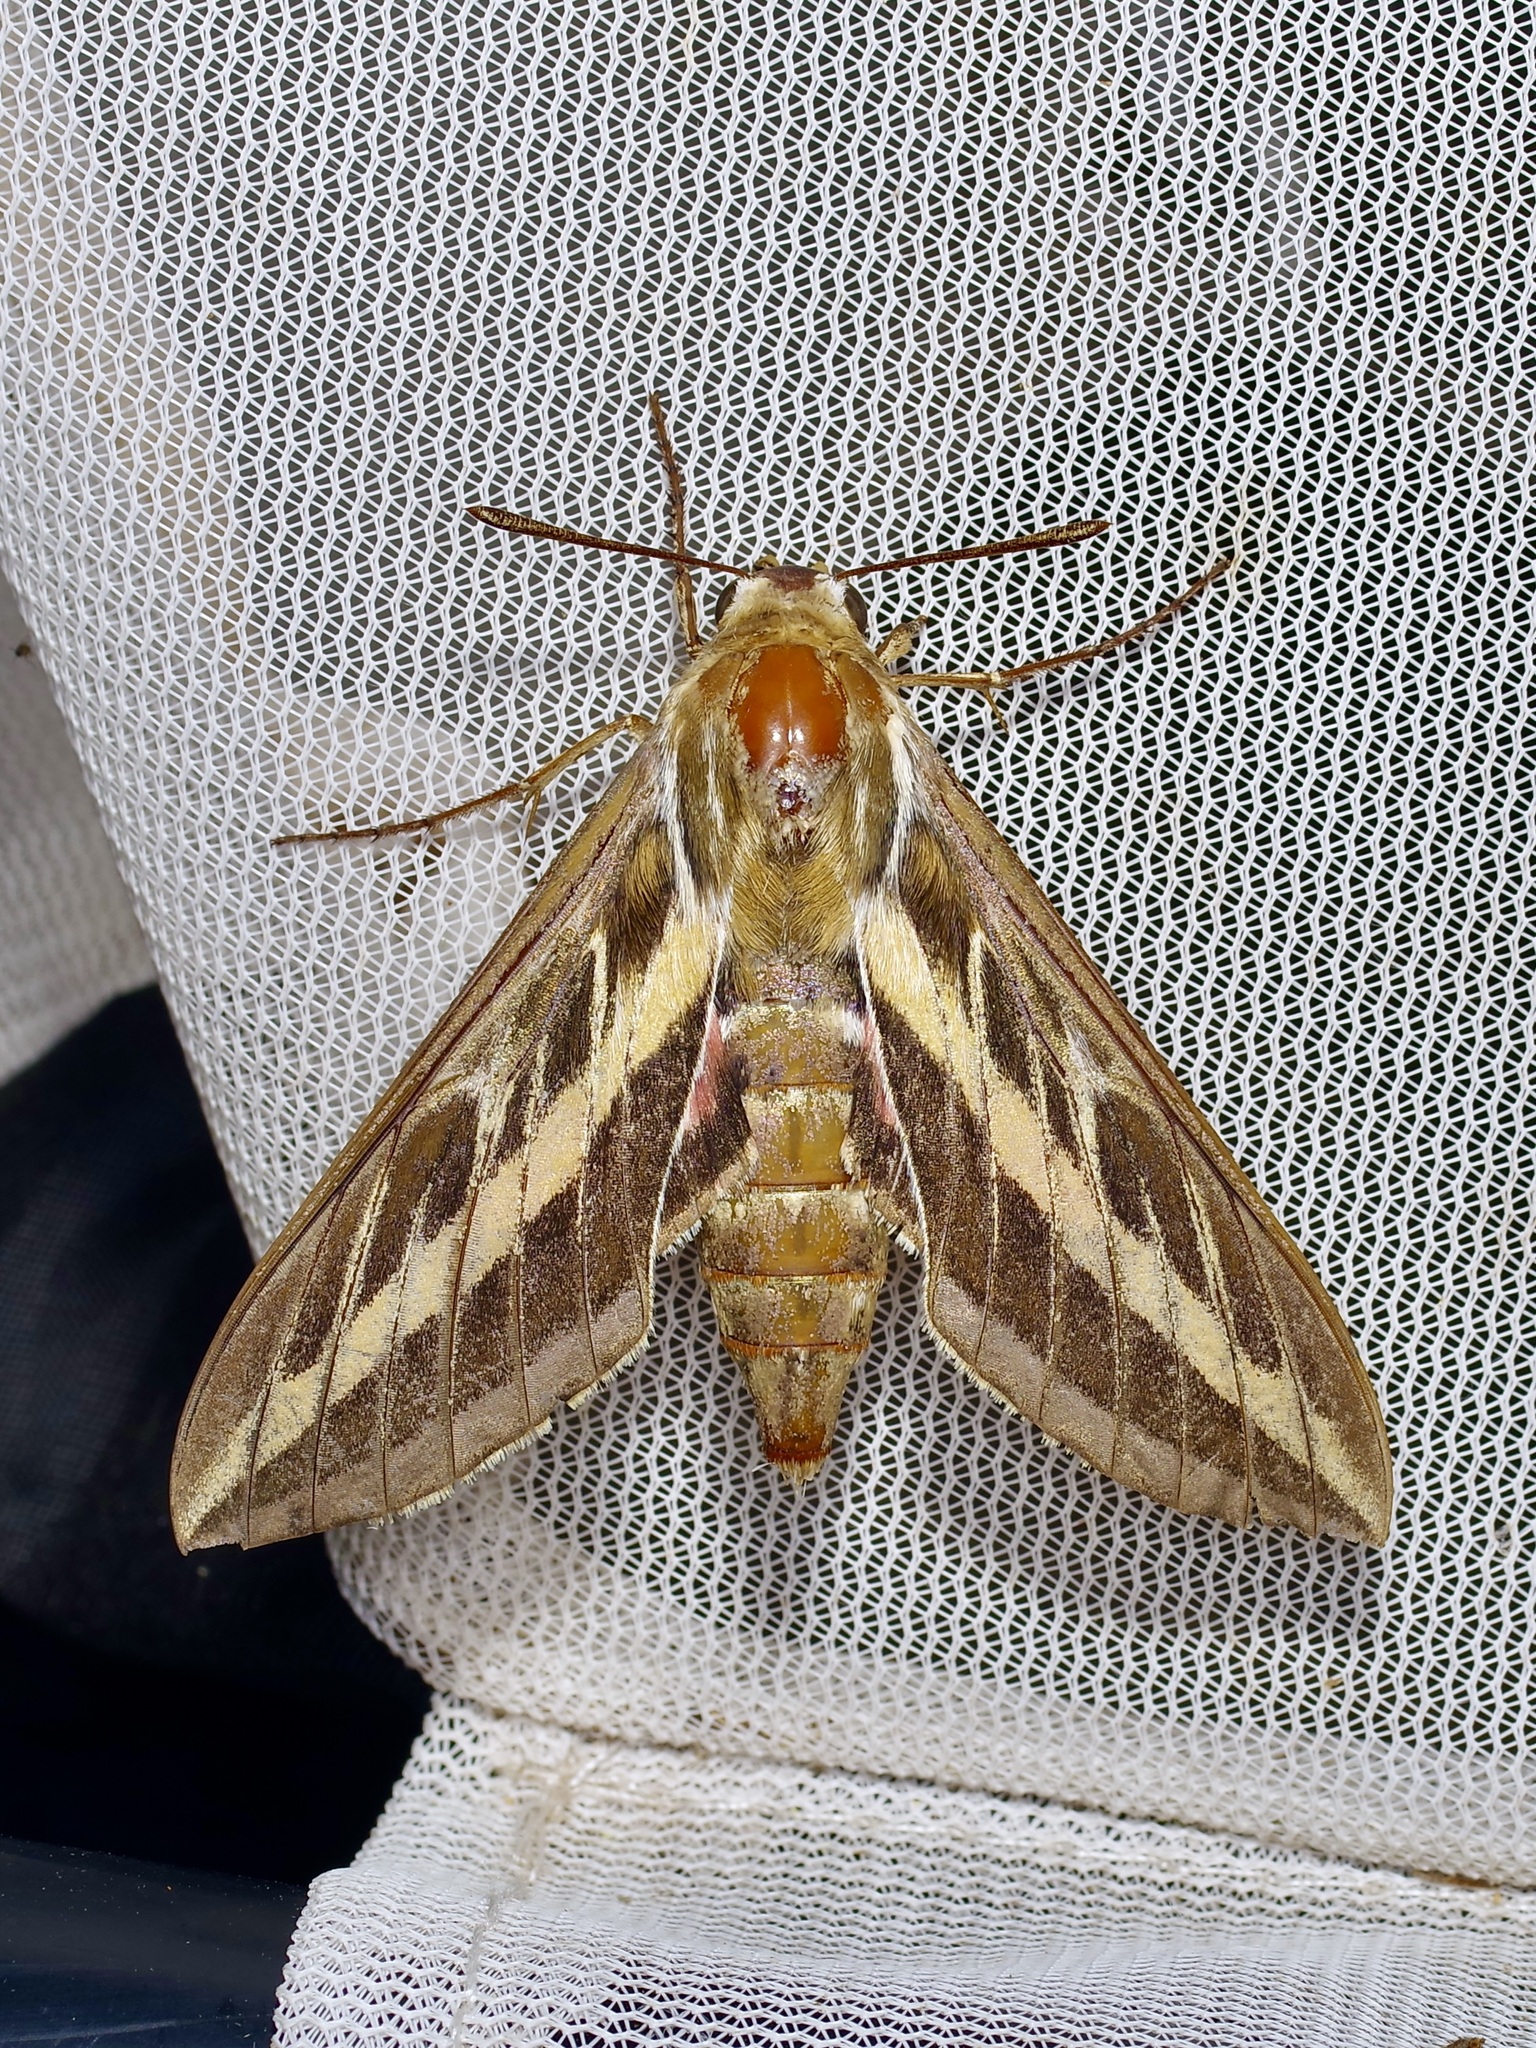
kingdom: Animalia
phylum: Arthropoda
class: Insecta
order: Lepidoptera
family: Sphingidae
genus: Hyles
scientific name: Hyles lineata
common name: White-lined sphinx
